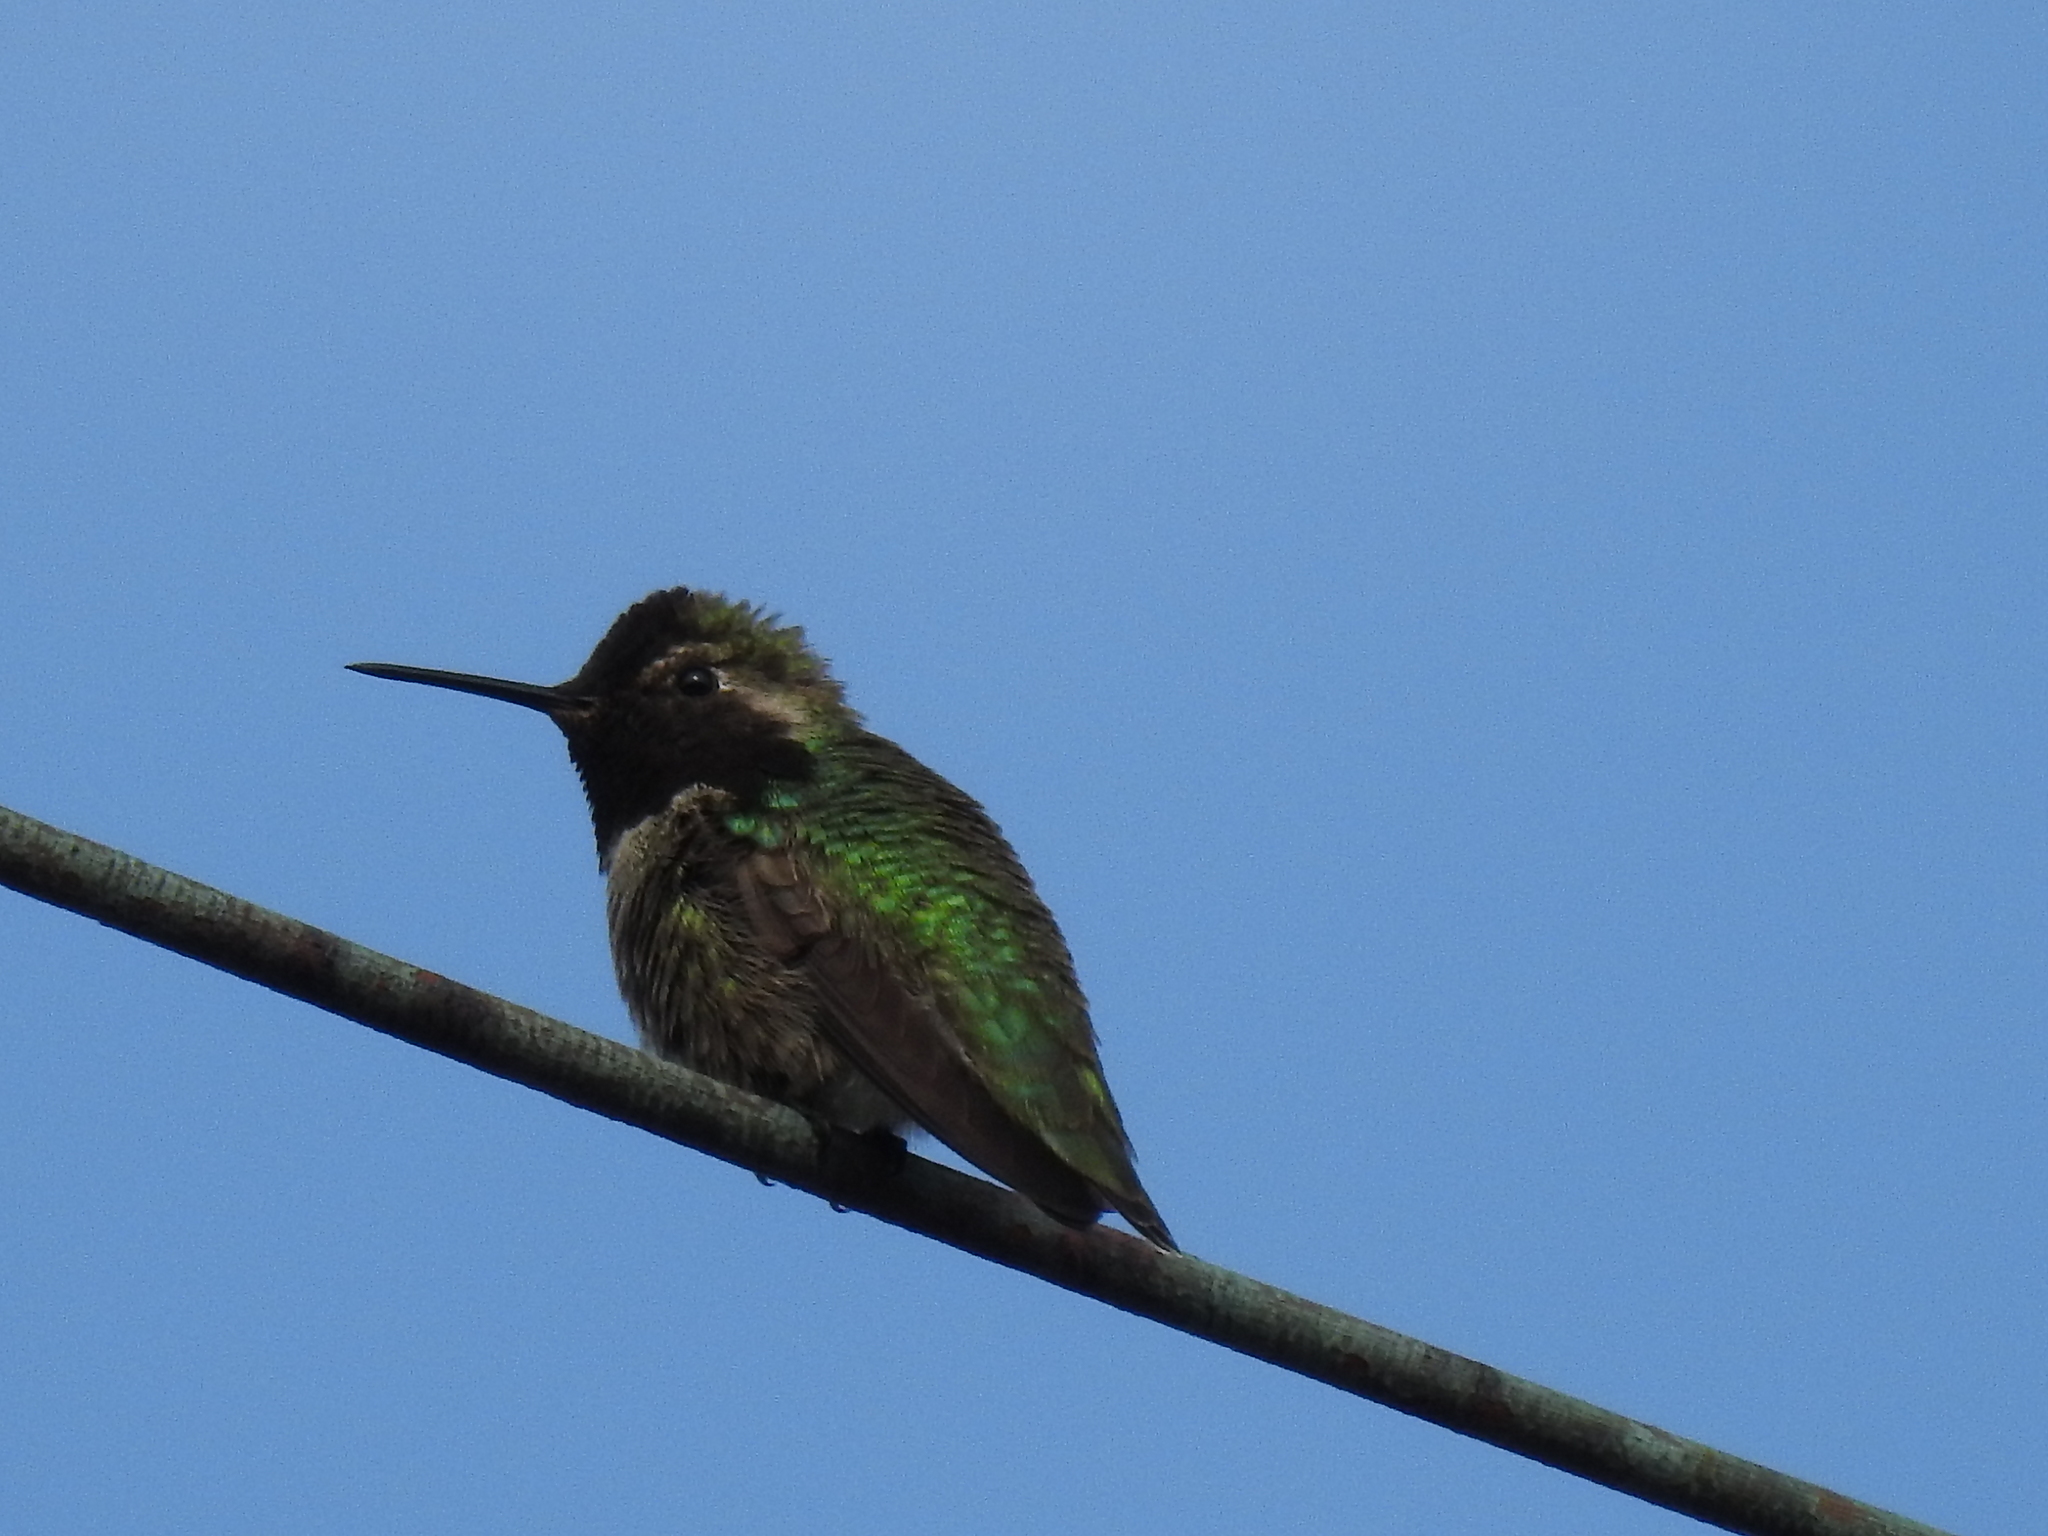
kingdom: Animalia
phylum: Chordata
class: Aves
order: Apodiformes
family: Trochilidae
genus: Calypte
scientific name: Calypte anna
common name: Anna's hummingbird
